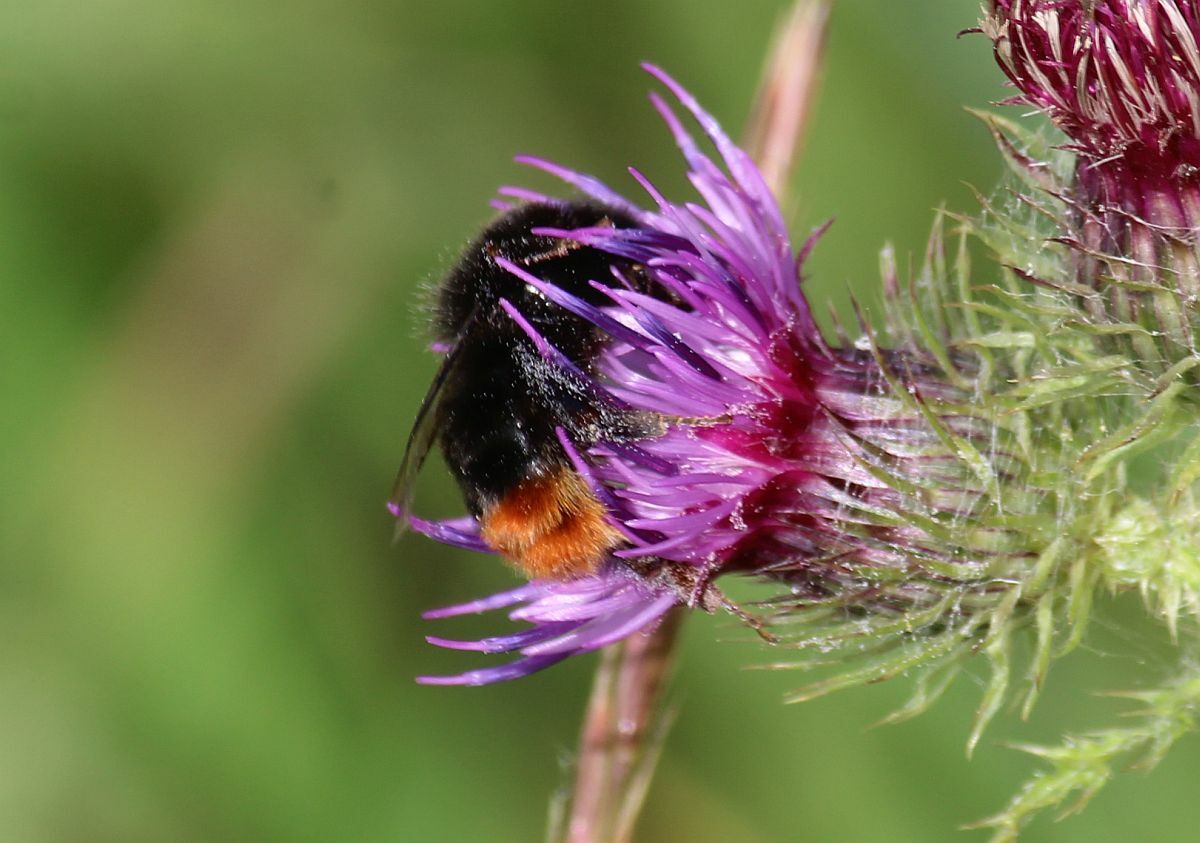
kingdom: Animalia
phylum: Arthropoda
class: Insecta
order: Hymenoptera
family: Apidae
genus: Bombus
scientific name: Bombus lapidarius
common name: Large red-tailed humble-bee
